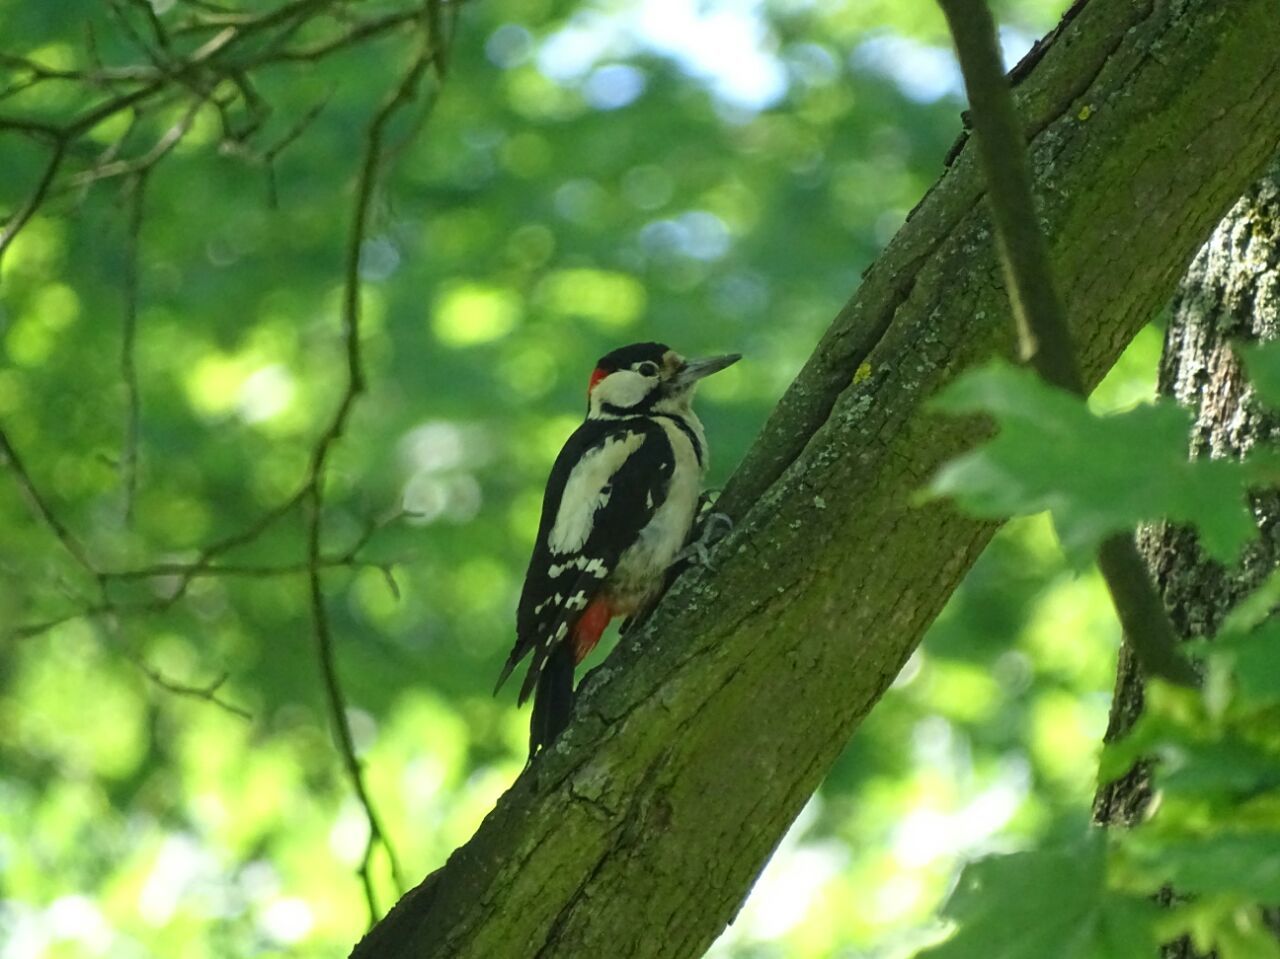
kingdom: Animalia
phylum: Chordata
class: Aves
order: Piciformes
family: Picidae
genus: Dendrocopos
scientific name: Dendrocopos syriacus
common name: Syrian woodpecker
